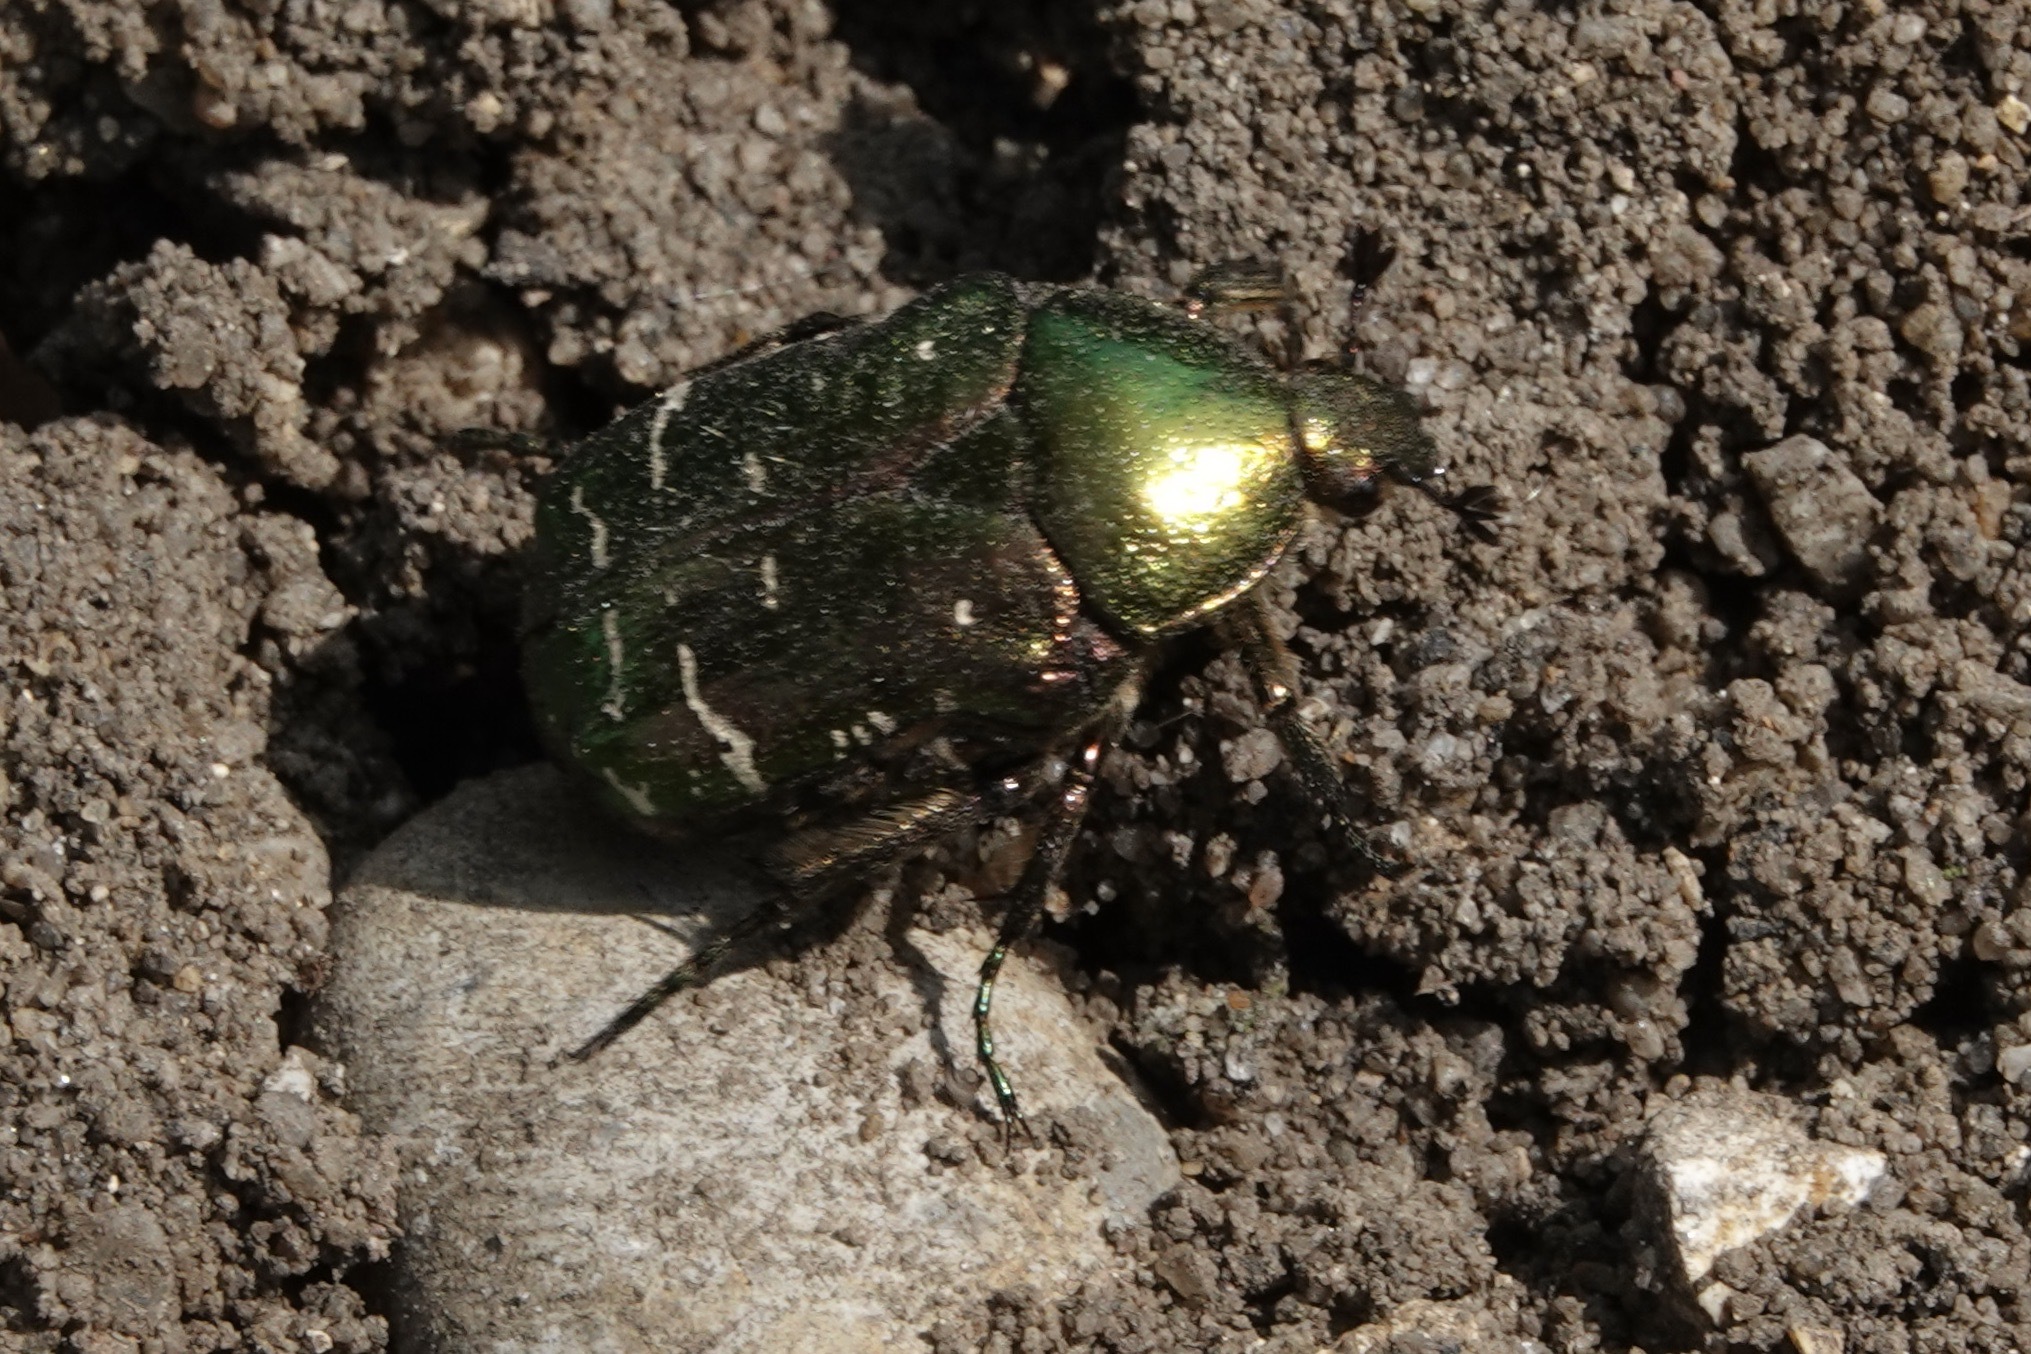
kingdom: Animalia
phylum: Arthropoda
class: Insecta
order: Coleoptera
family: Scarabaeidae
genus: Cetonia
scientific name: Cetonia aurata
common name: Rose chafer
